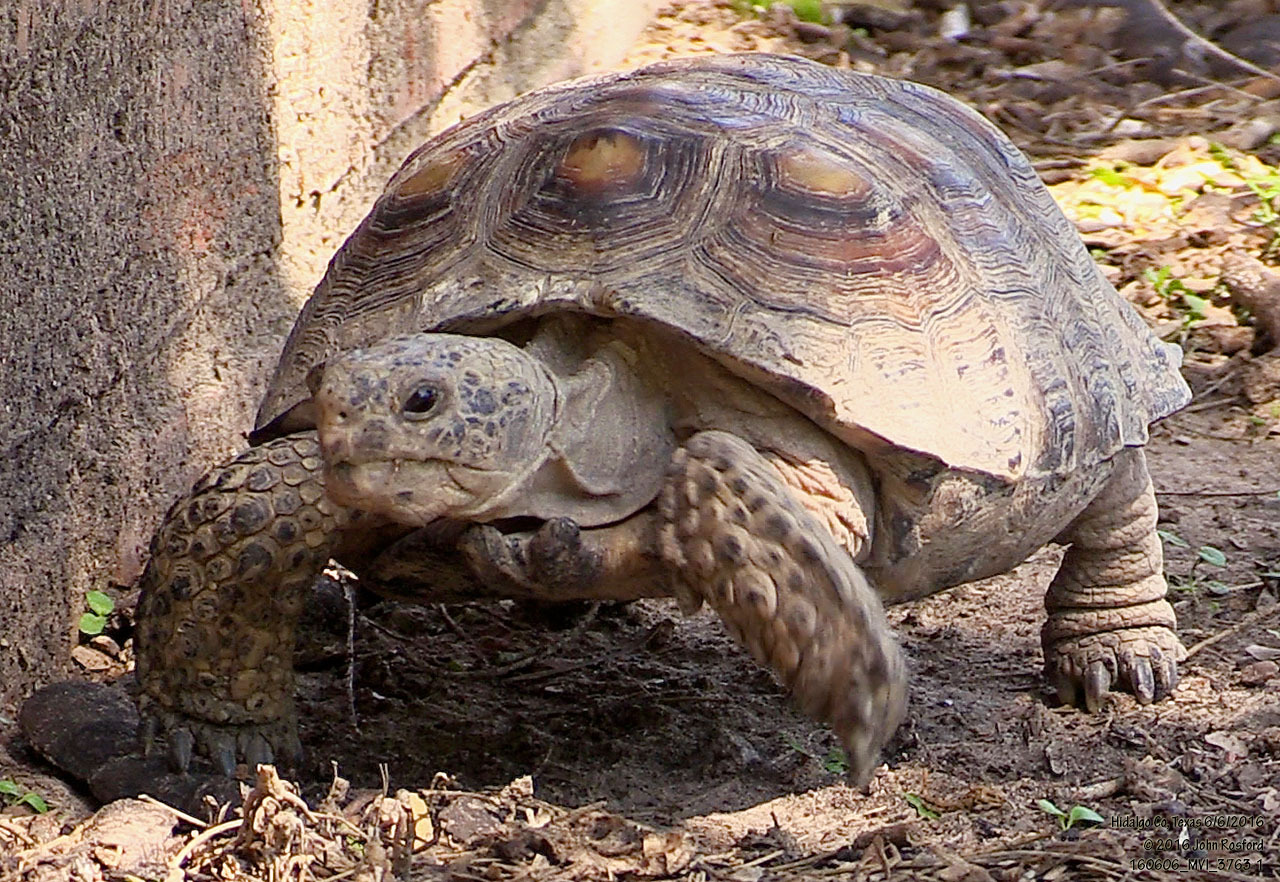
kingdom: Animalia
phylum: Chordata
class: Testudines
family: Testudinidae
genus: Gopherus
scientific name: Gopherus berlandieri
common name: Texas (gopher )tortoise
